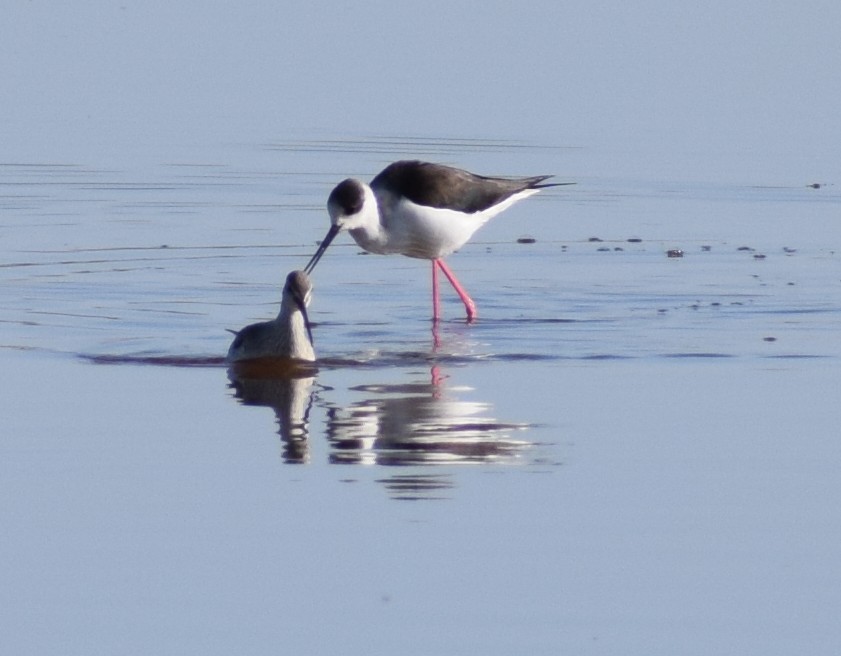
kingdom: Animalia
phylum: Chordata
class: Aves
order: Charadriiformes
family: Recurvirostridae
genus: Himantopus
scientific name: Himantopus himantopus
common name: Black-winged stilt
